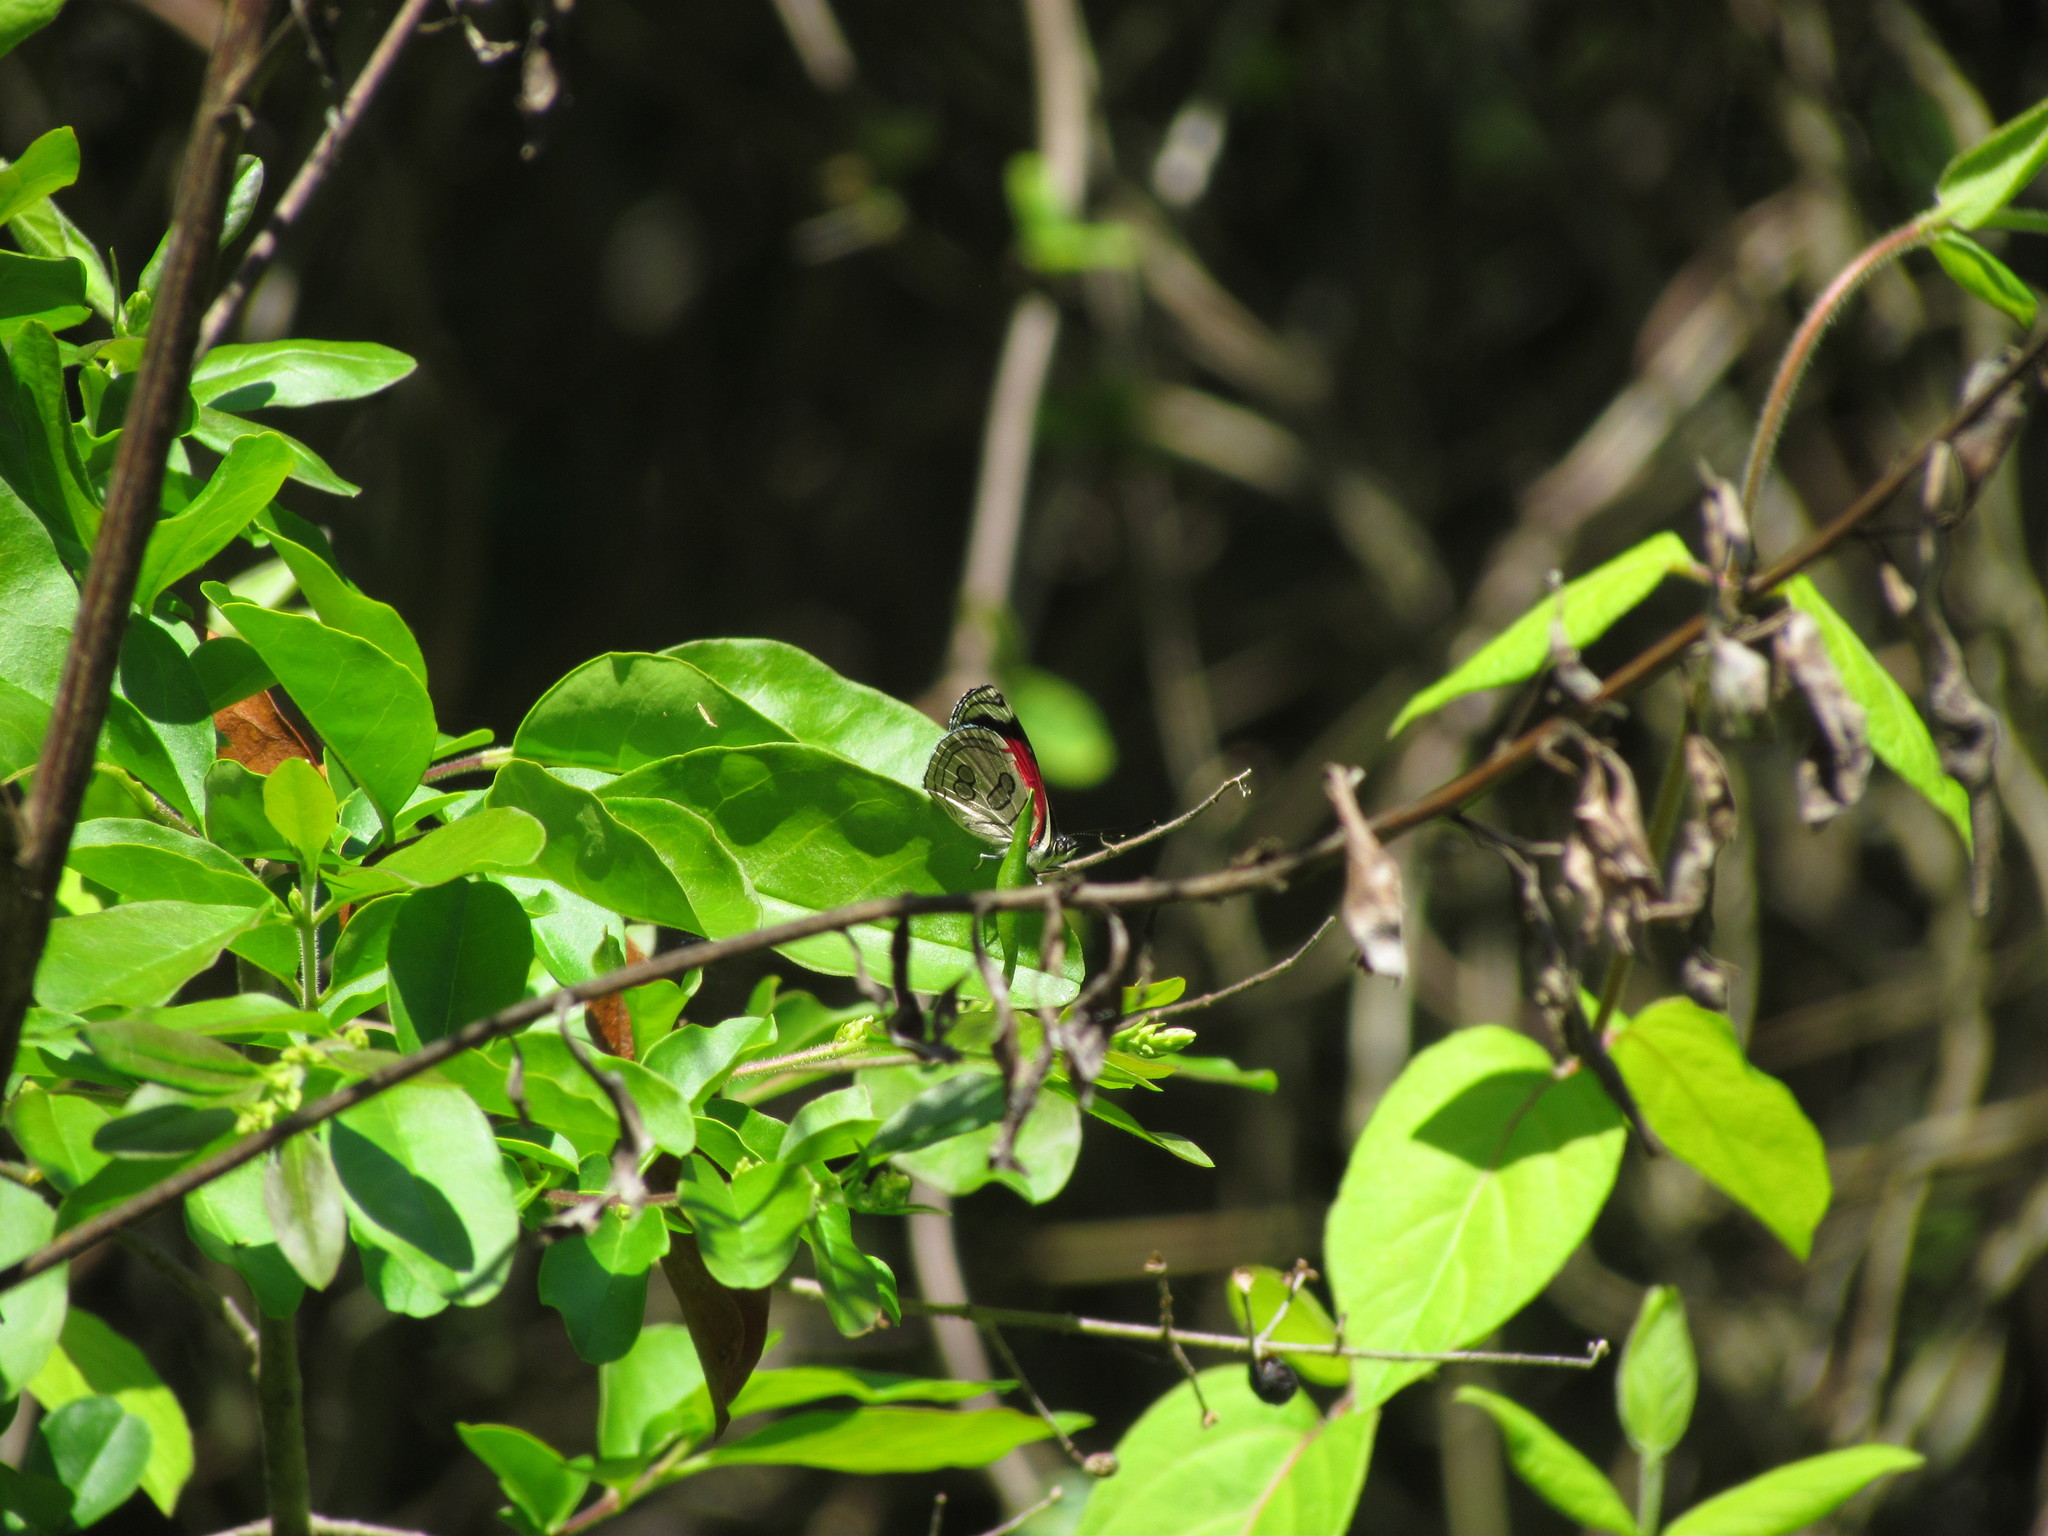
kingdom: Animalia
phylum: Arthropoda
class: Insecta
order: Lepidoptera
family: Nymphalidae
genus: Diaethria
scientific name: Diaethria candrena
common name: Number eighty
